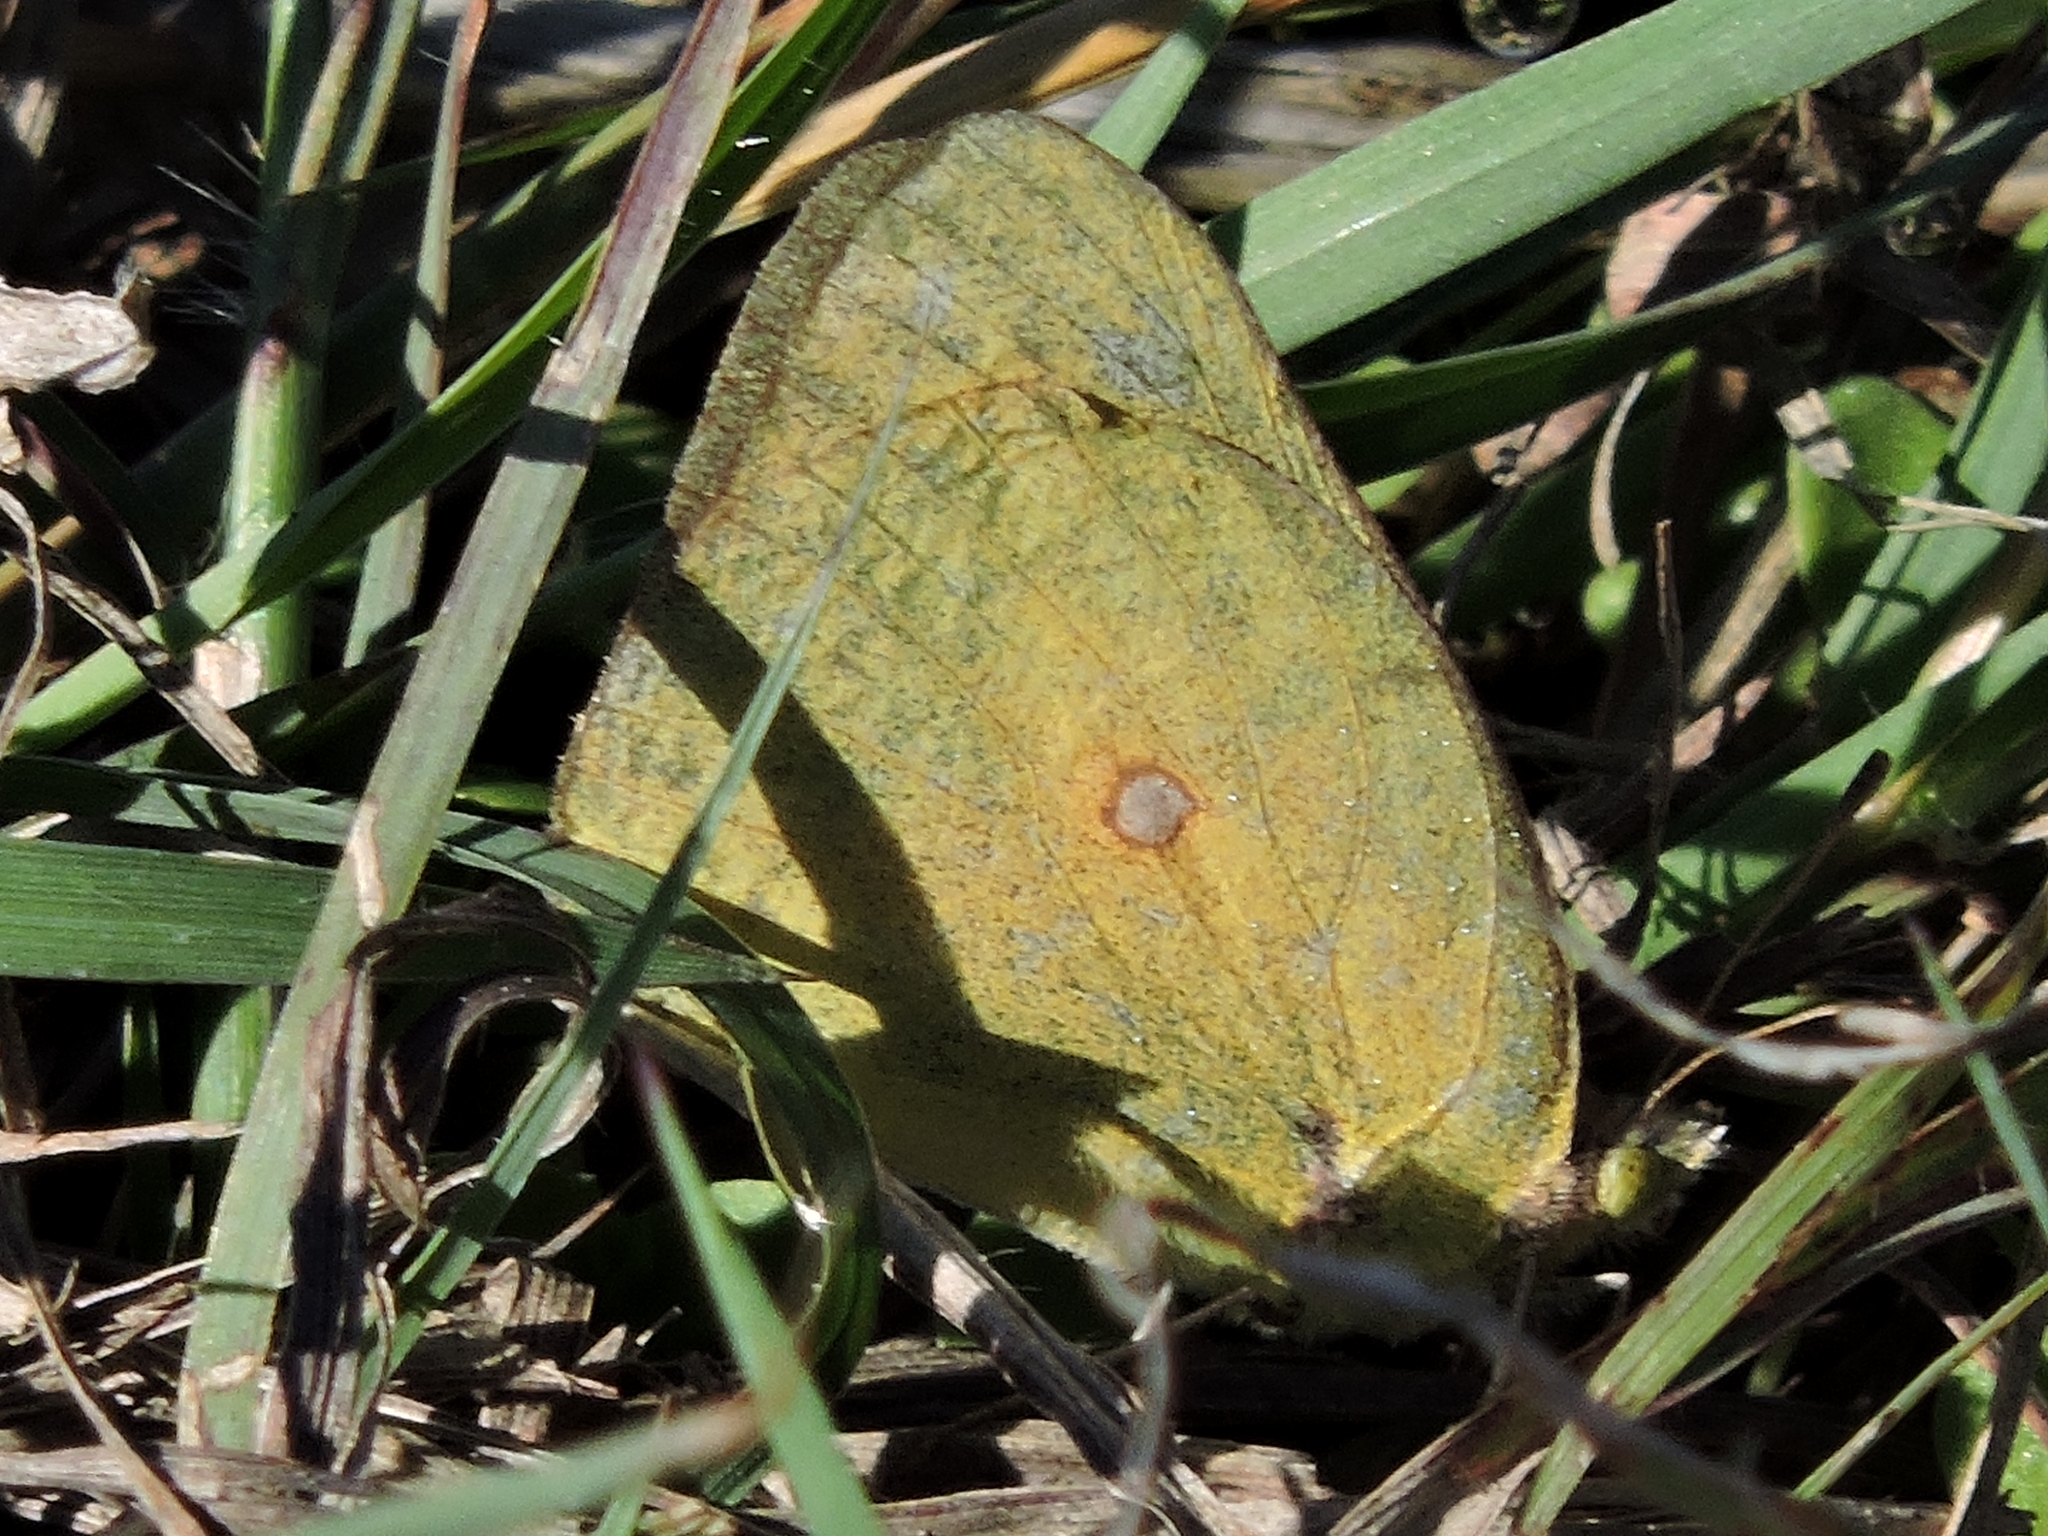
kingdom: Animalia
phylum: Arthropoda
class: Insecta
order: Lepidoptera
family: Pieridae
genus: Colias
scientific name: Colias eurytheme
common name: Alfalfa butterfly
